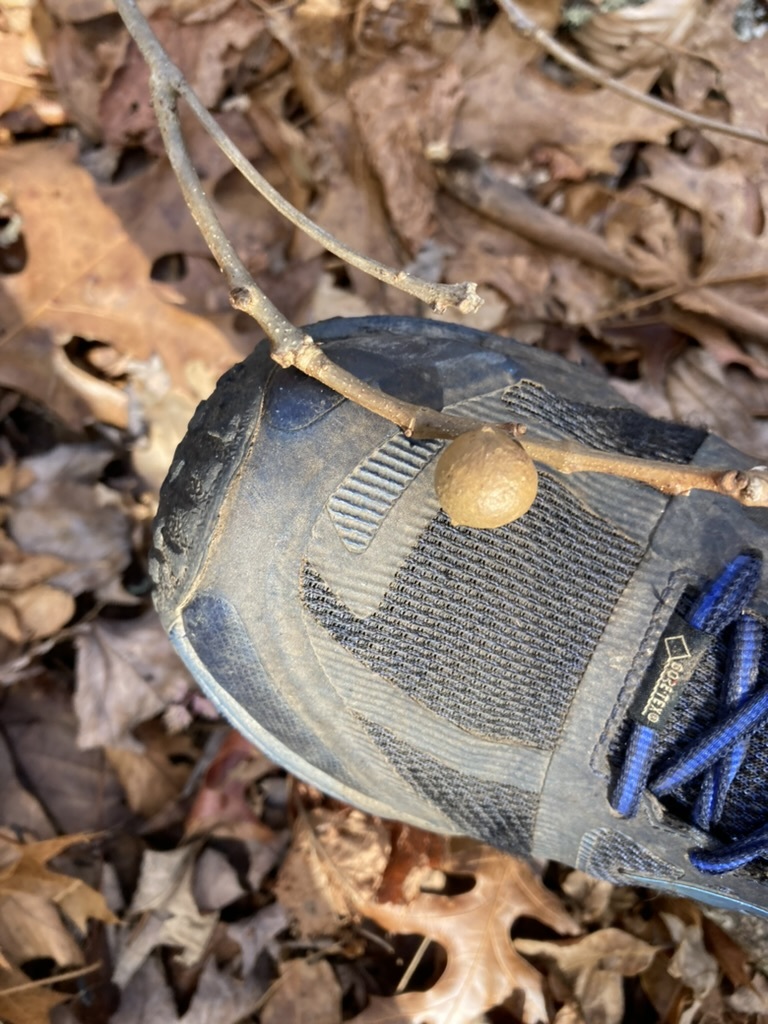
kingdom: Animalia
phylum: Arthropoda
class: Insecta
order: Hymenoptera
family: Cynipidae
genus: Disholcaspis
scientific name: Disholcaspis quercusglobulus
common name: Round bullet gall wasp
